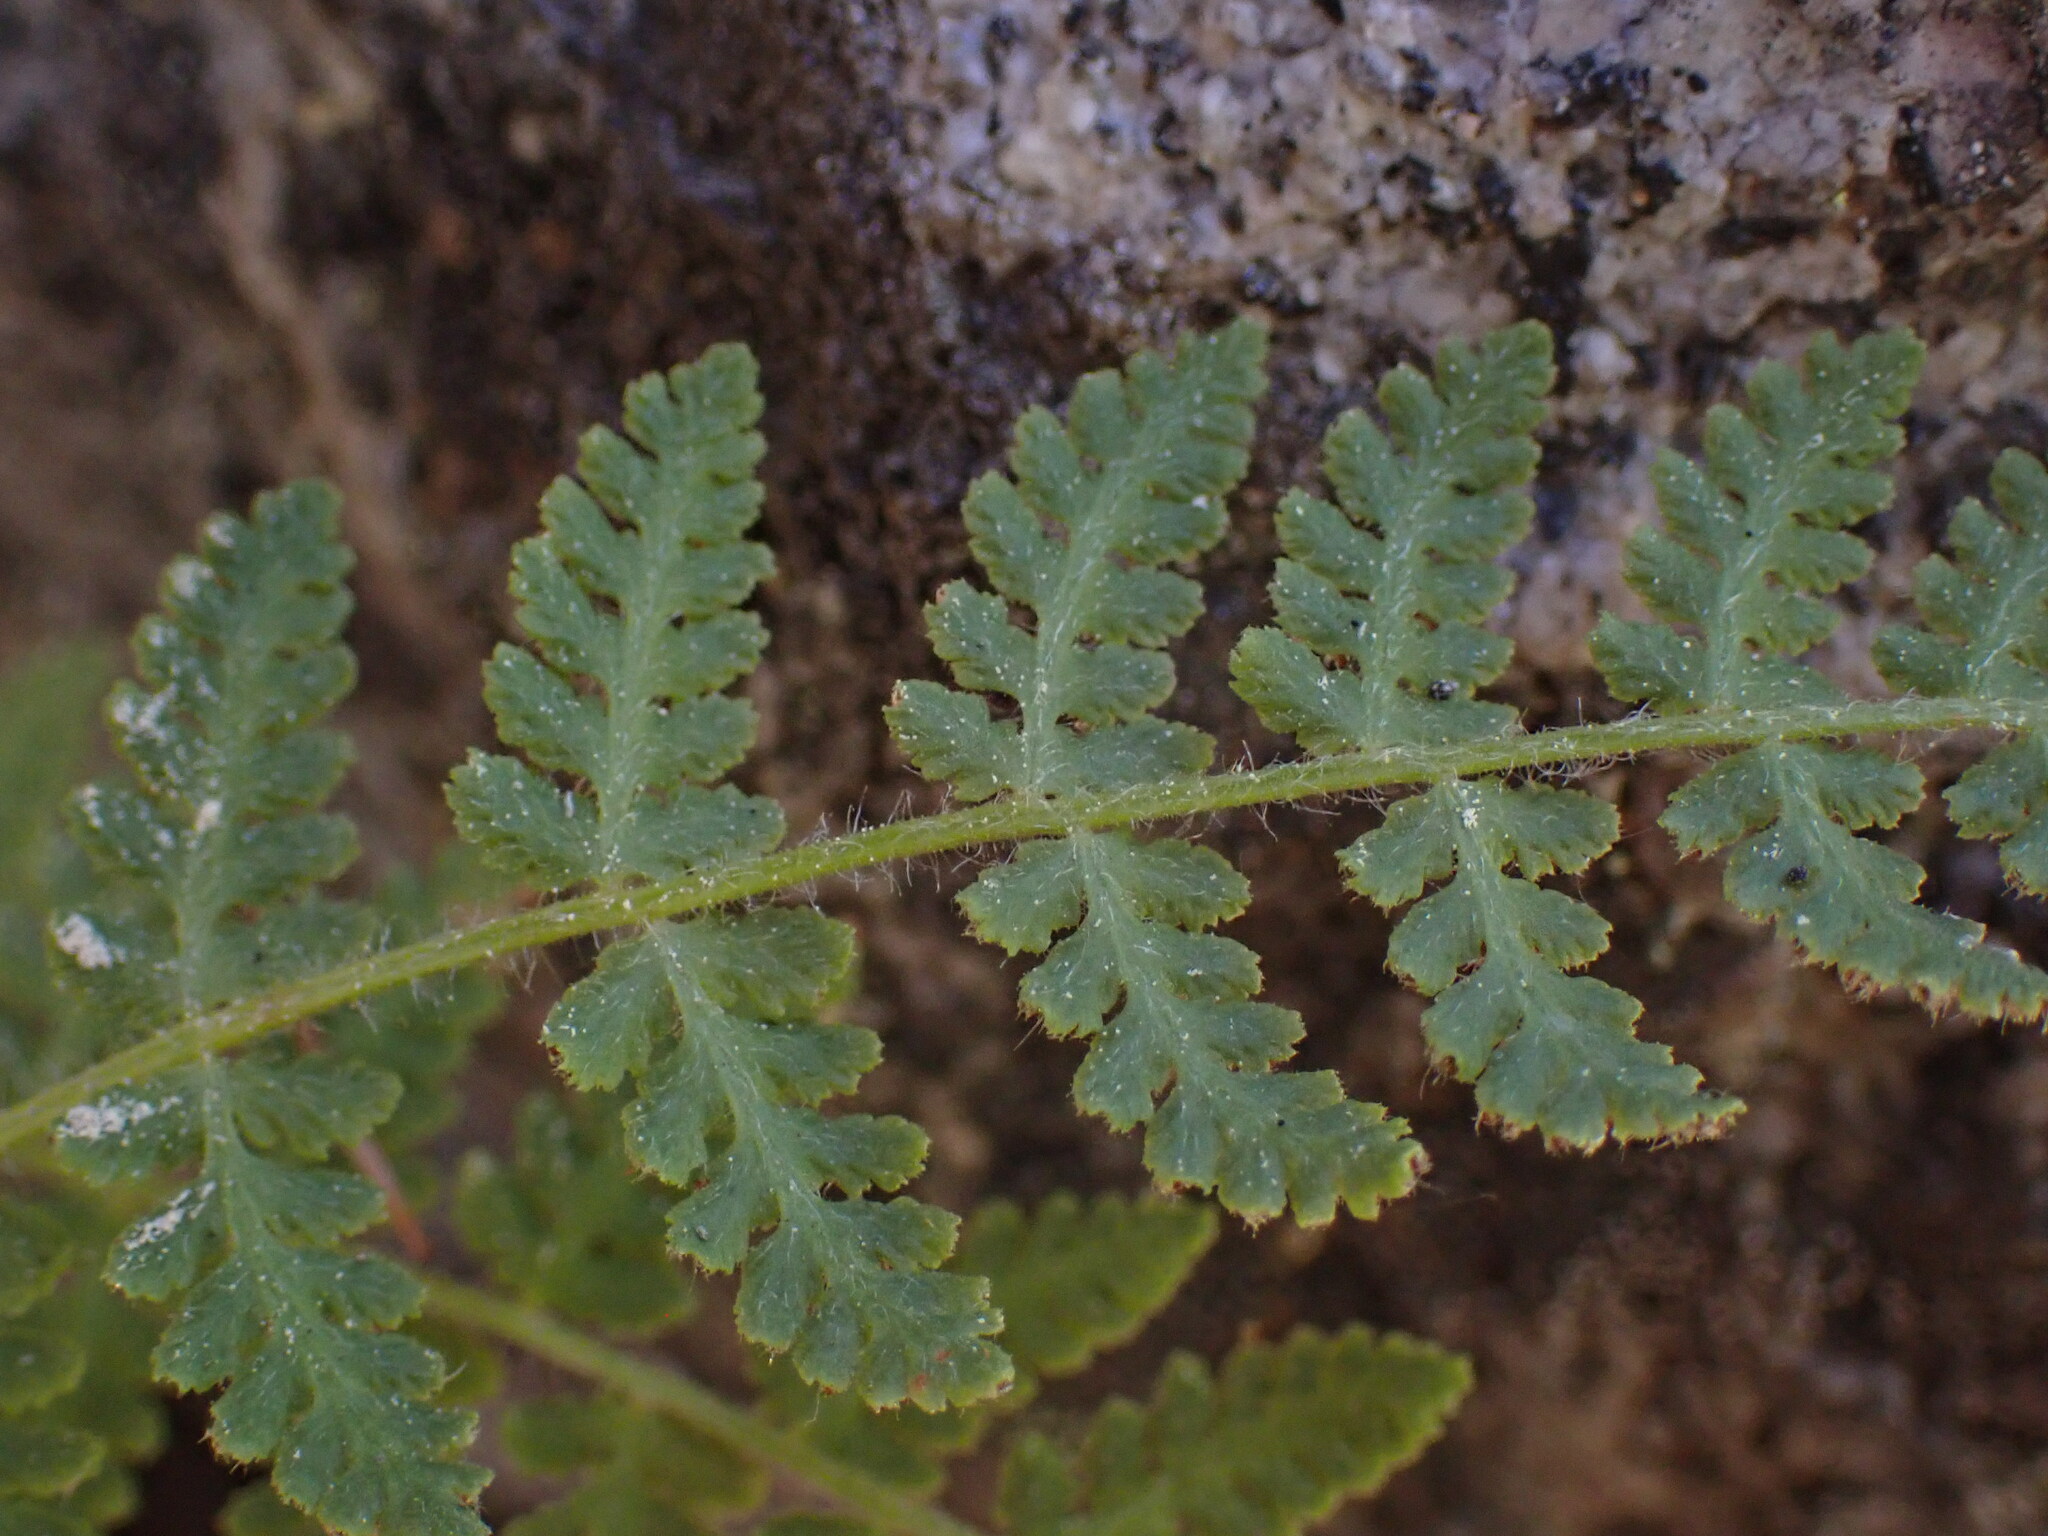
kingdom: Plantae
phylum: Tracheophyta
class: Polypodiopsida
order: Polypodiales
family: Woodsiaceae
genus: Physematium
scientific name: Physematium scopulinum
